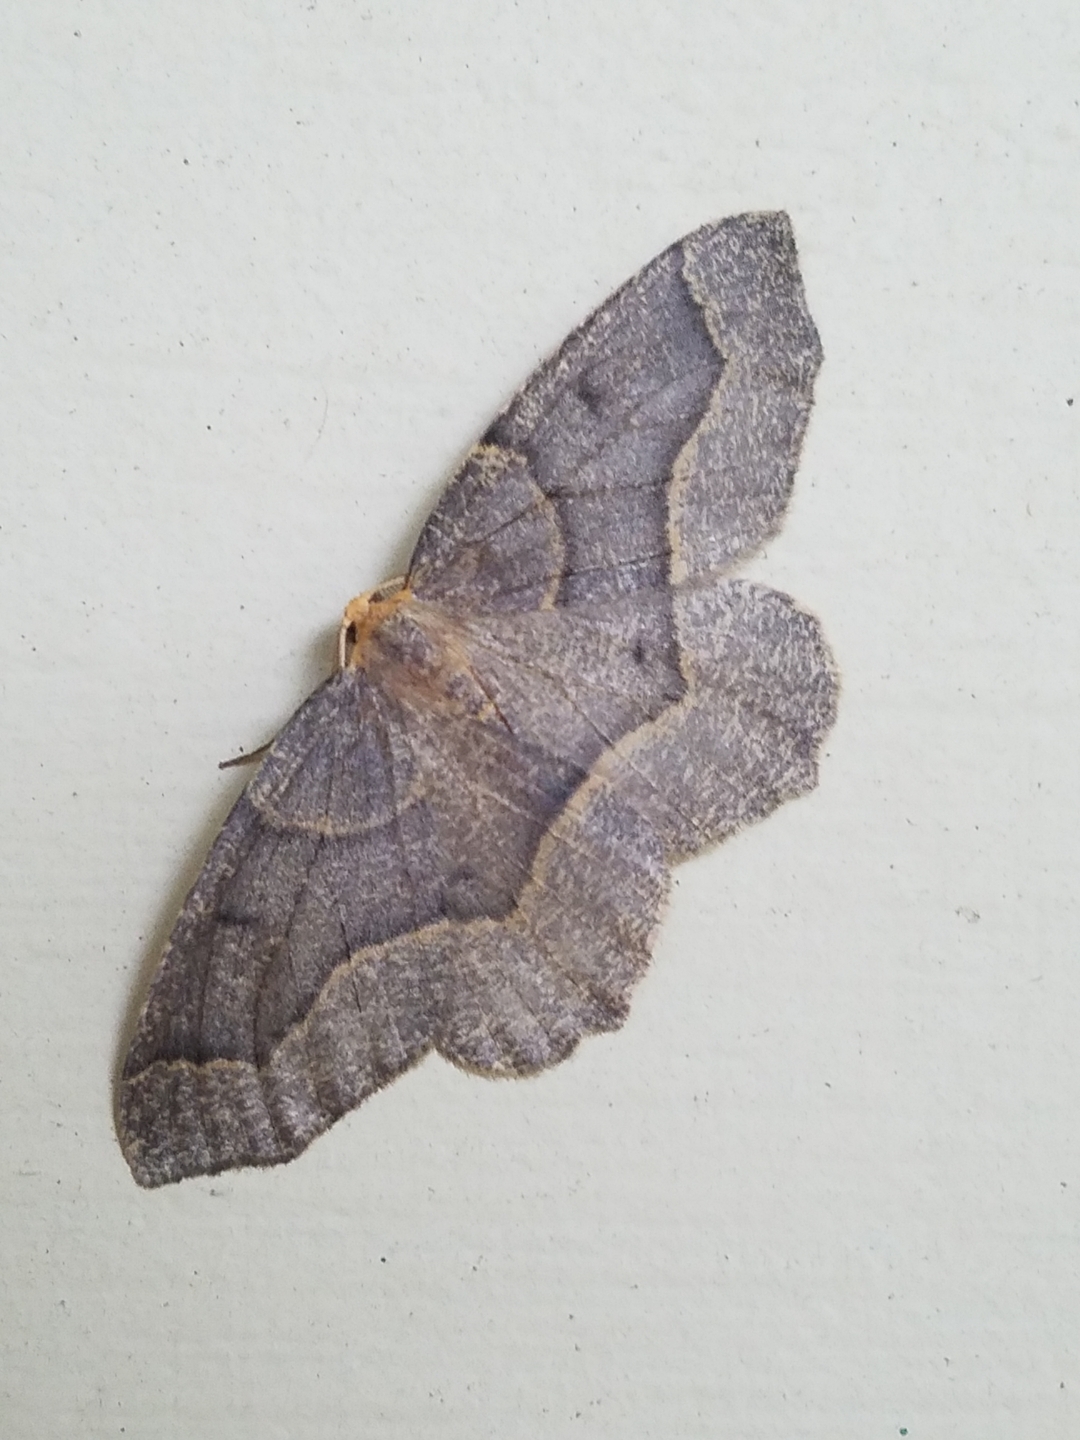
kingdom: Animalia
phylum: Arthropoda
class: Insecta
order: Lepidoptera
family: Geometridae
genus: Lambdina
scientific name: Lambdina fiscellaria
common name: Hemlock looper
